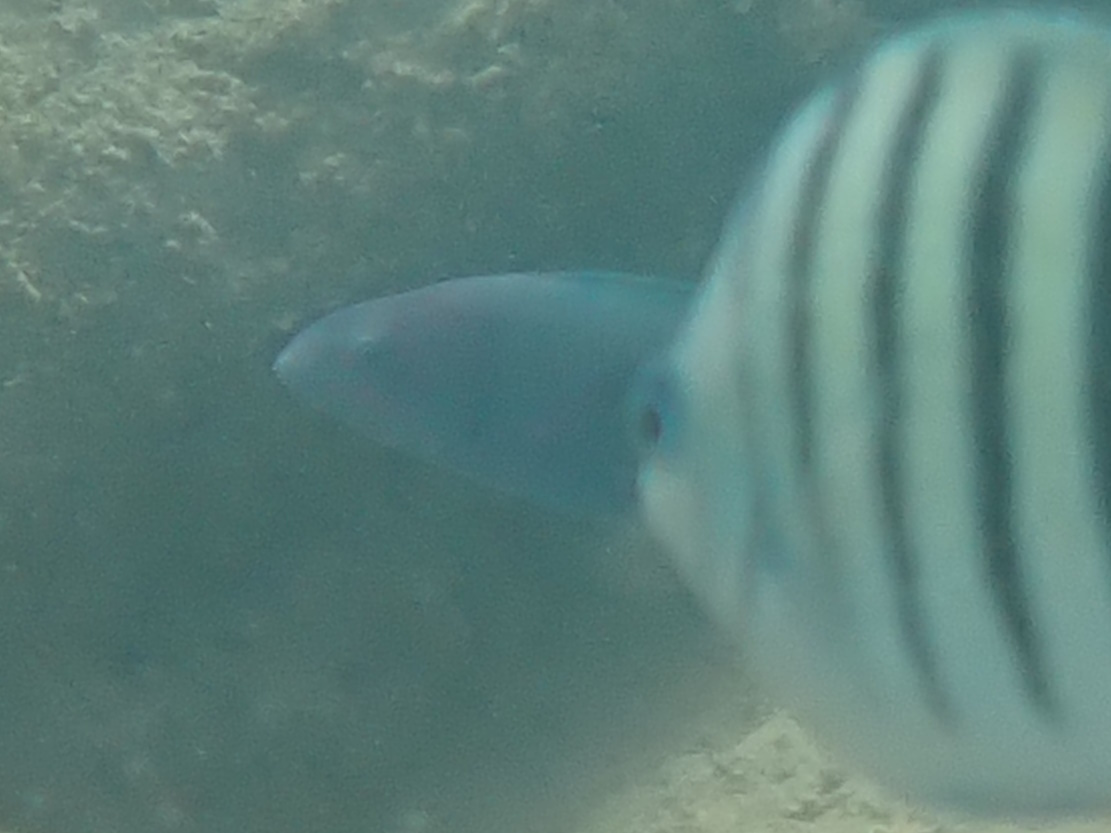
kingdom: Animalia
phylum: Chordata
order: Perciformes
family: Labridae
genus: Thalassoma
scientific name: Thalassoma lunare
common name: Blue wrasse
